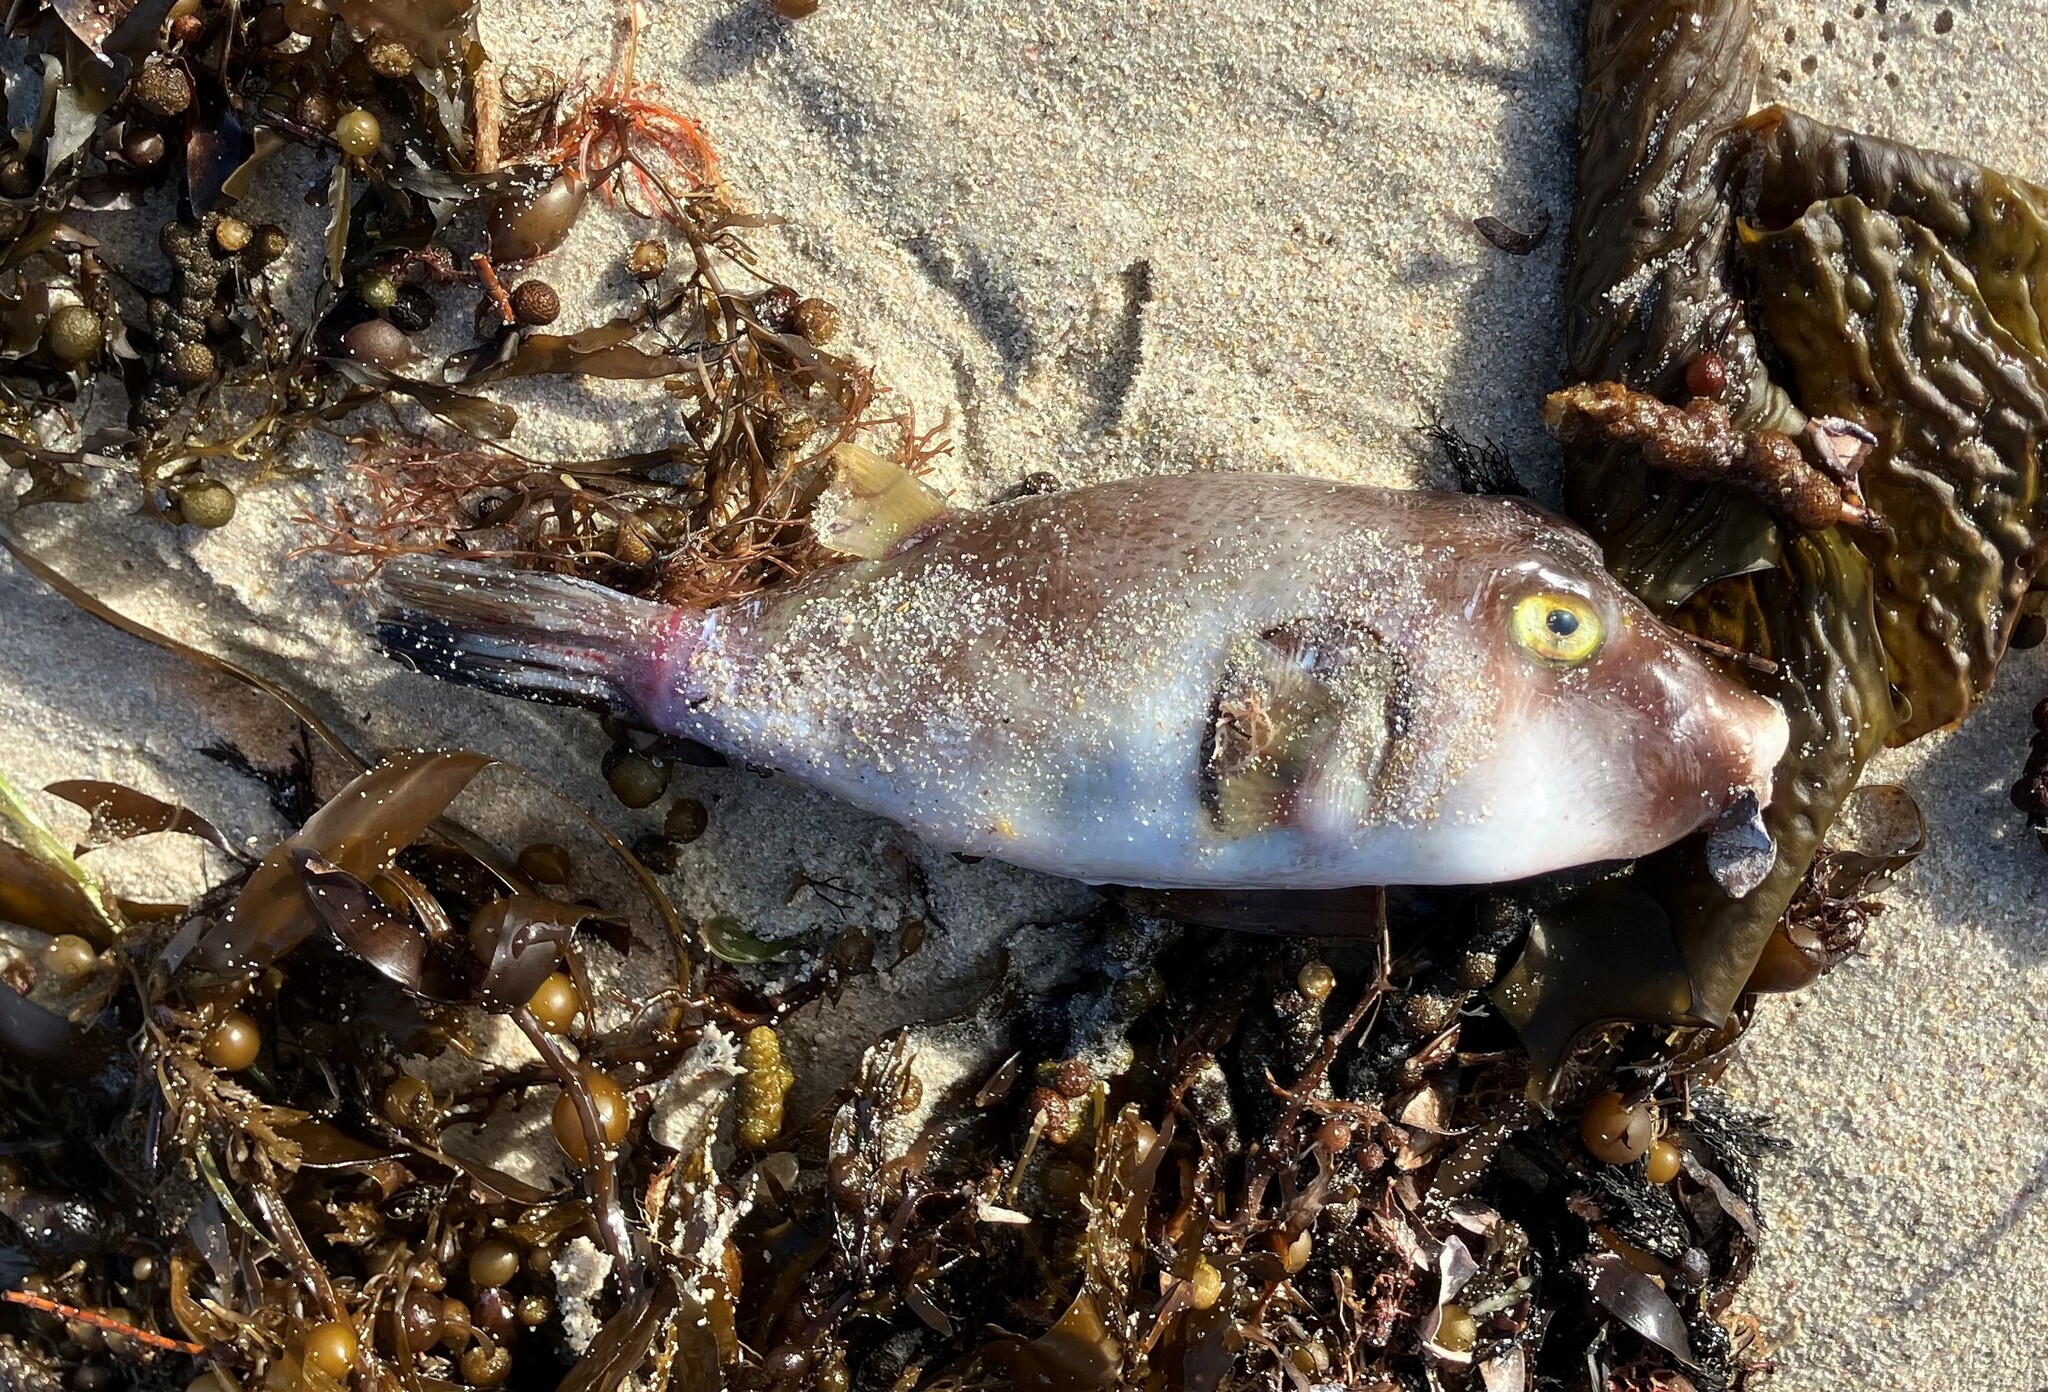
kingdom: Animalia
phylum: Chordata
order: Tetraodontiformes
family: Tetraodontidae
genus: Omegophora
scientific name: Omegophora armilla
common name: Ringed pufferfish
